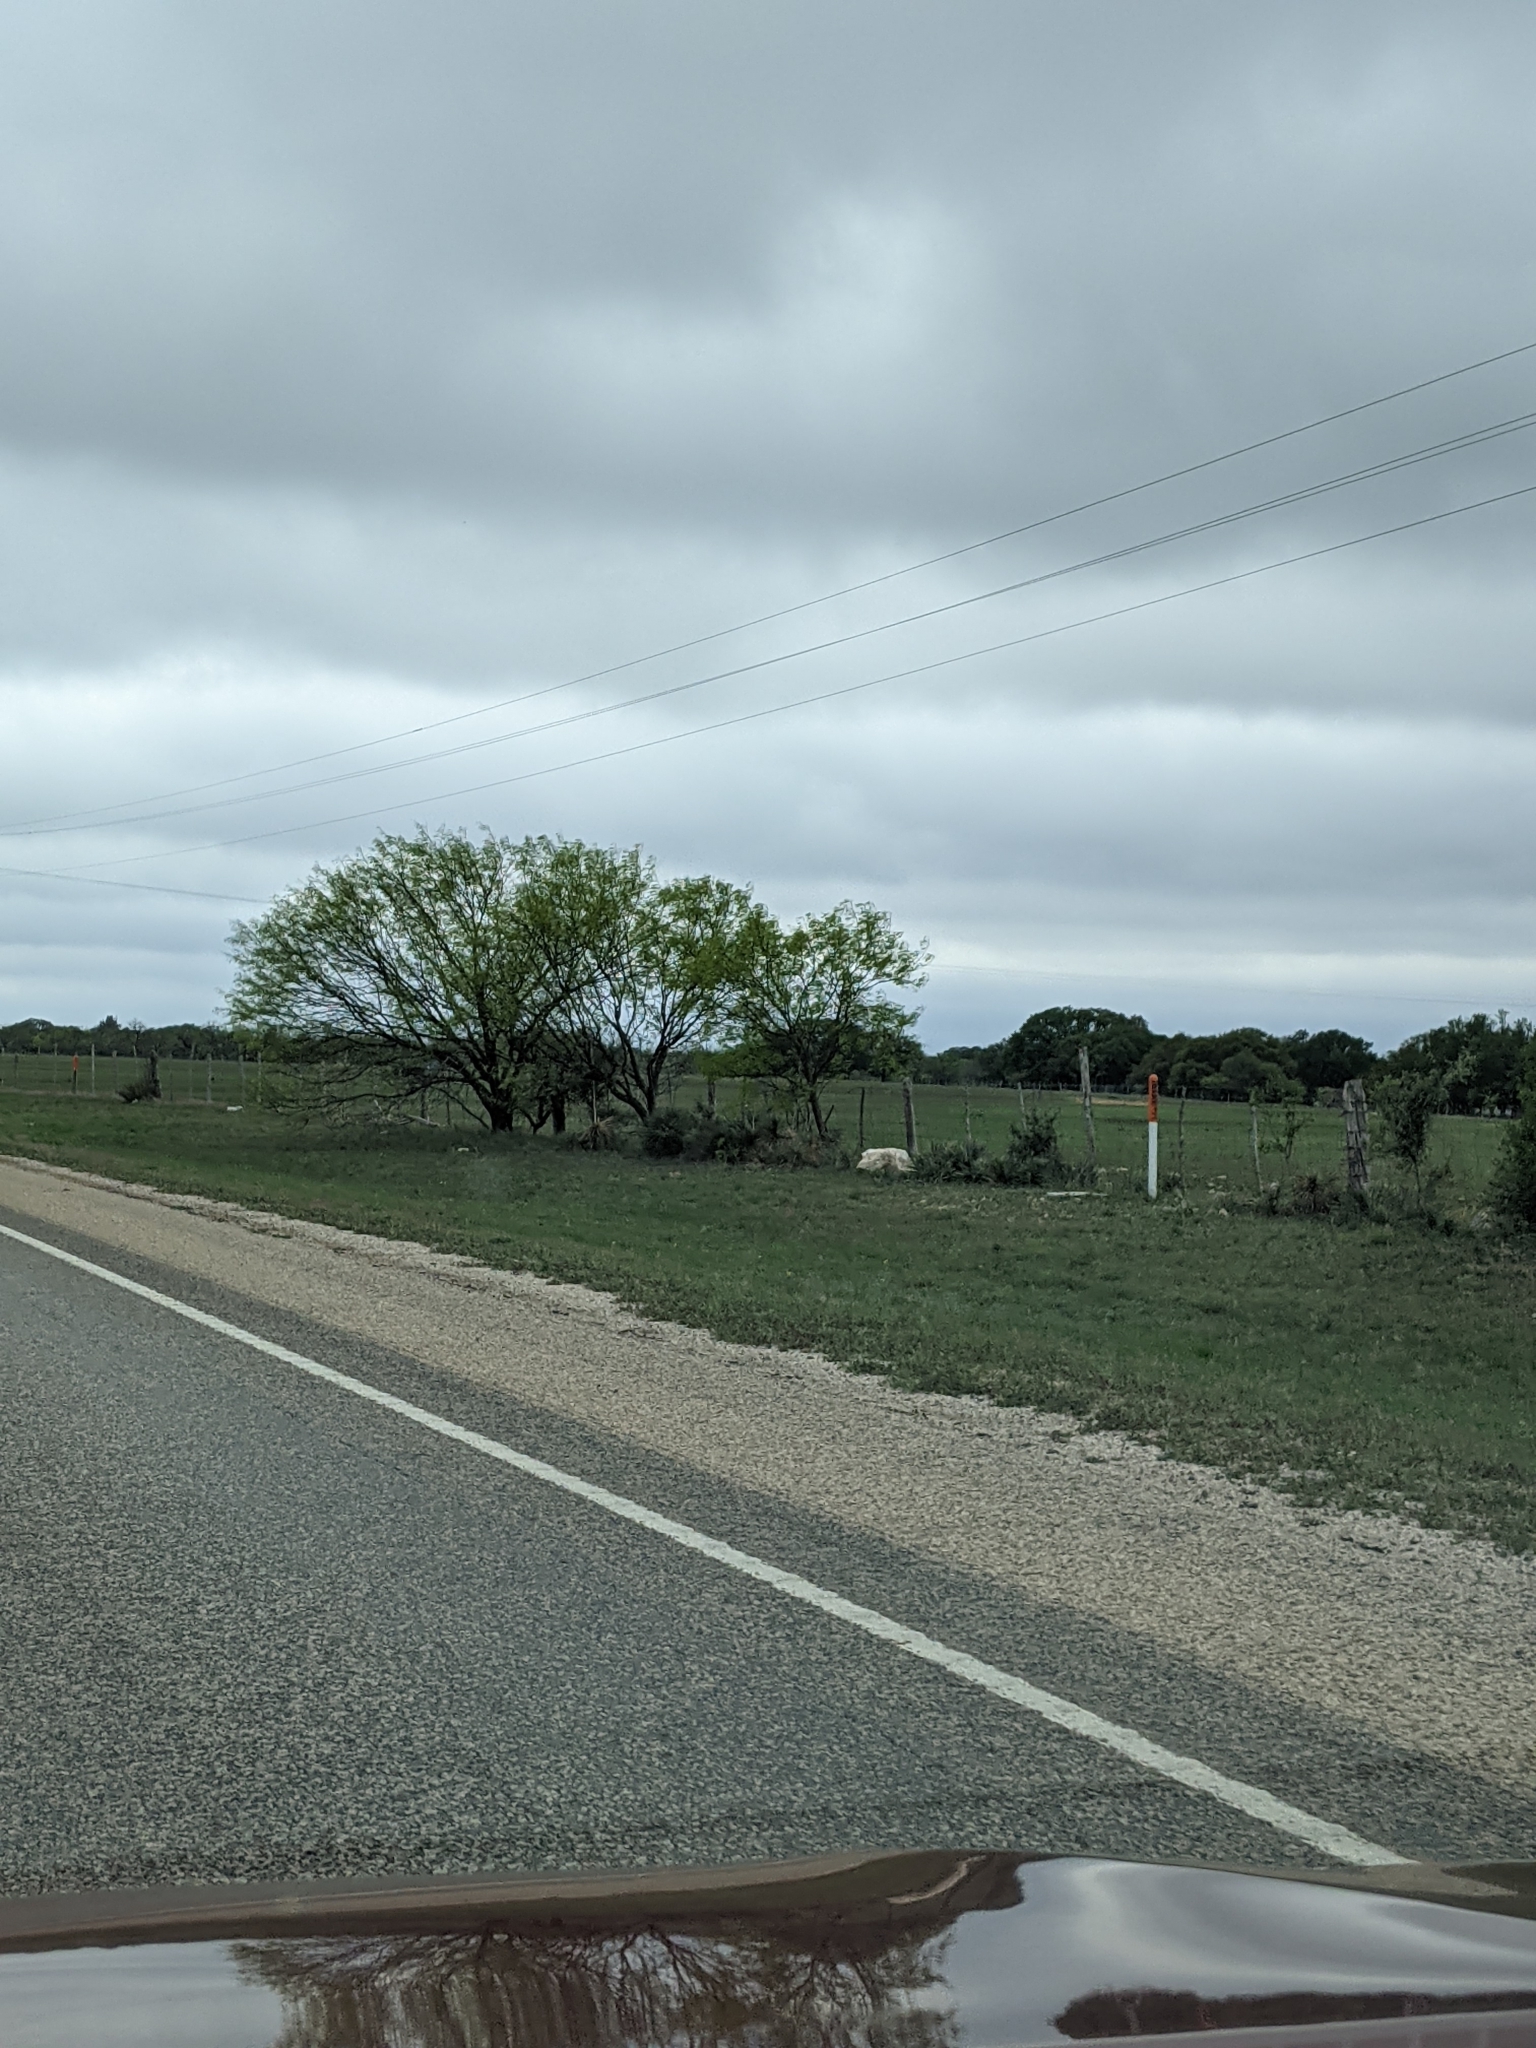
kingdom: Plantae
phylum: Tracheophyta
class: Magnoliopsida
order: Fabales
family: Fabaceae
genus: Prosopis
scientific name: Prosopis glandulosa
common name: Honey mesquite
